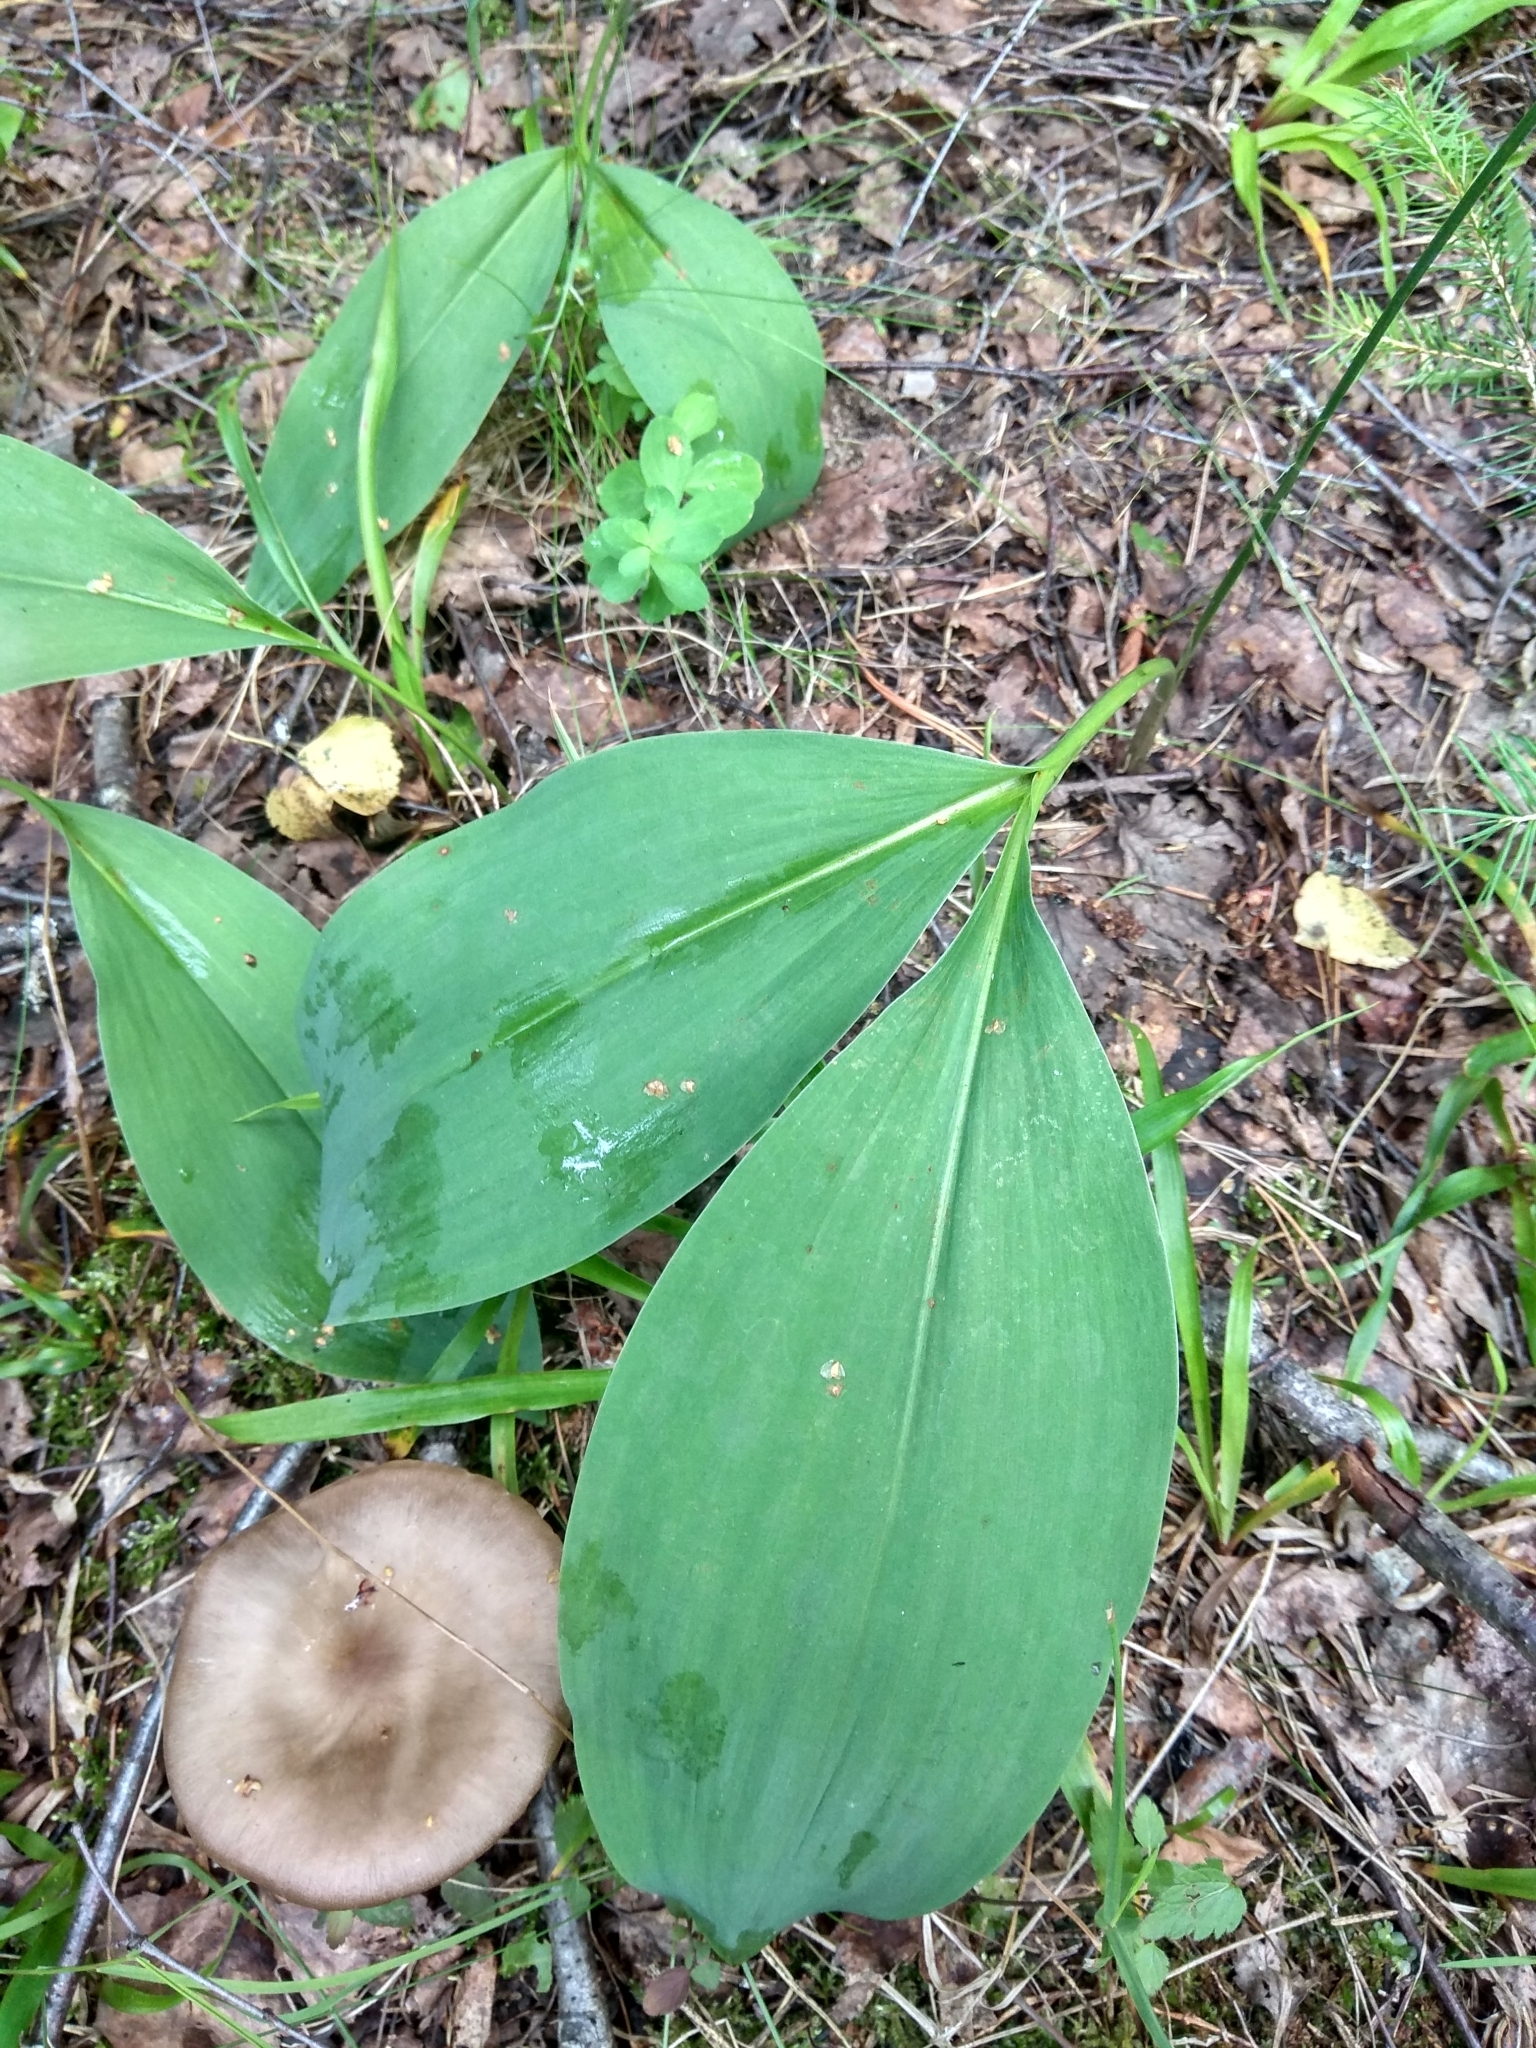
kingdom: Plantae
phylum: Tracheophyta
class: Liliopsida
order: Asparagales
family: Asparagaceae
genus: Convallaria
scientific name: Convallaria majalis
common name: Lily-of-the-valley
